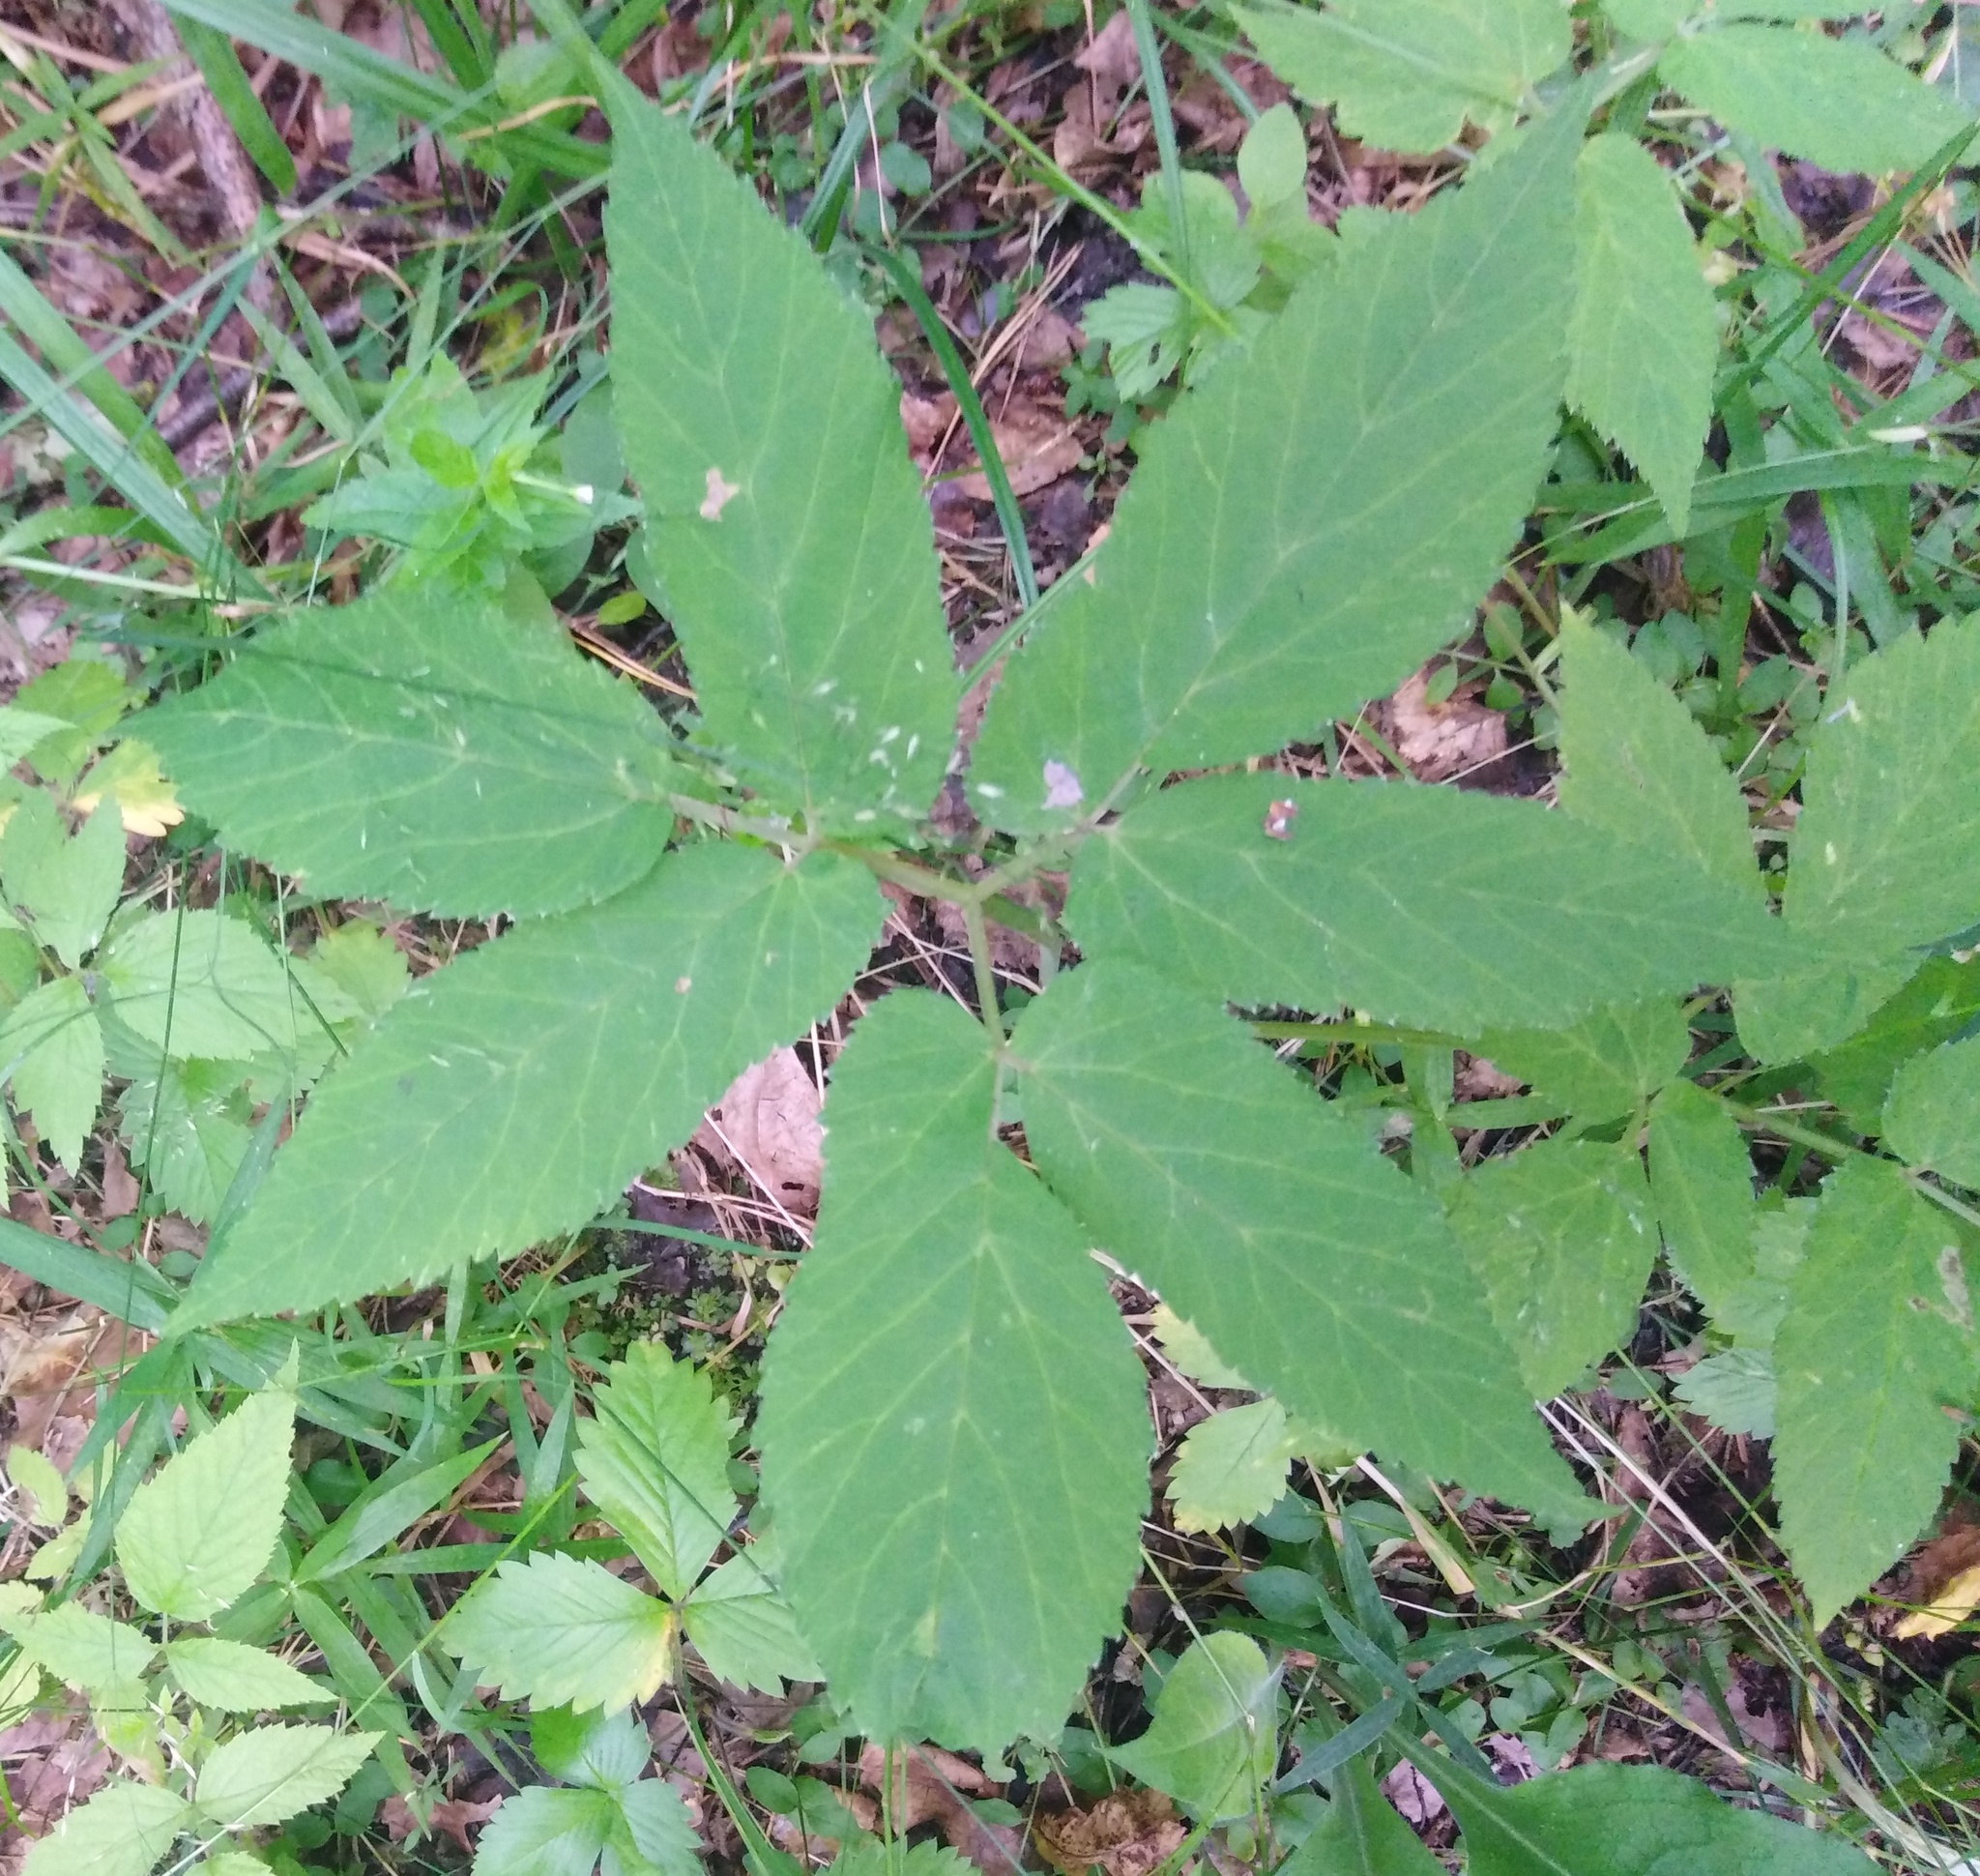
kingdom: Plantae
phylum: Tracheophyta
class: Magnoliopsida
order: Apiales
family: Apiaceae
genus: Aegopodium
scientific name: Aegopodium podagraria
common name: Ground-elder
